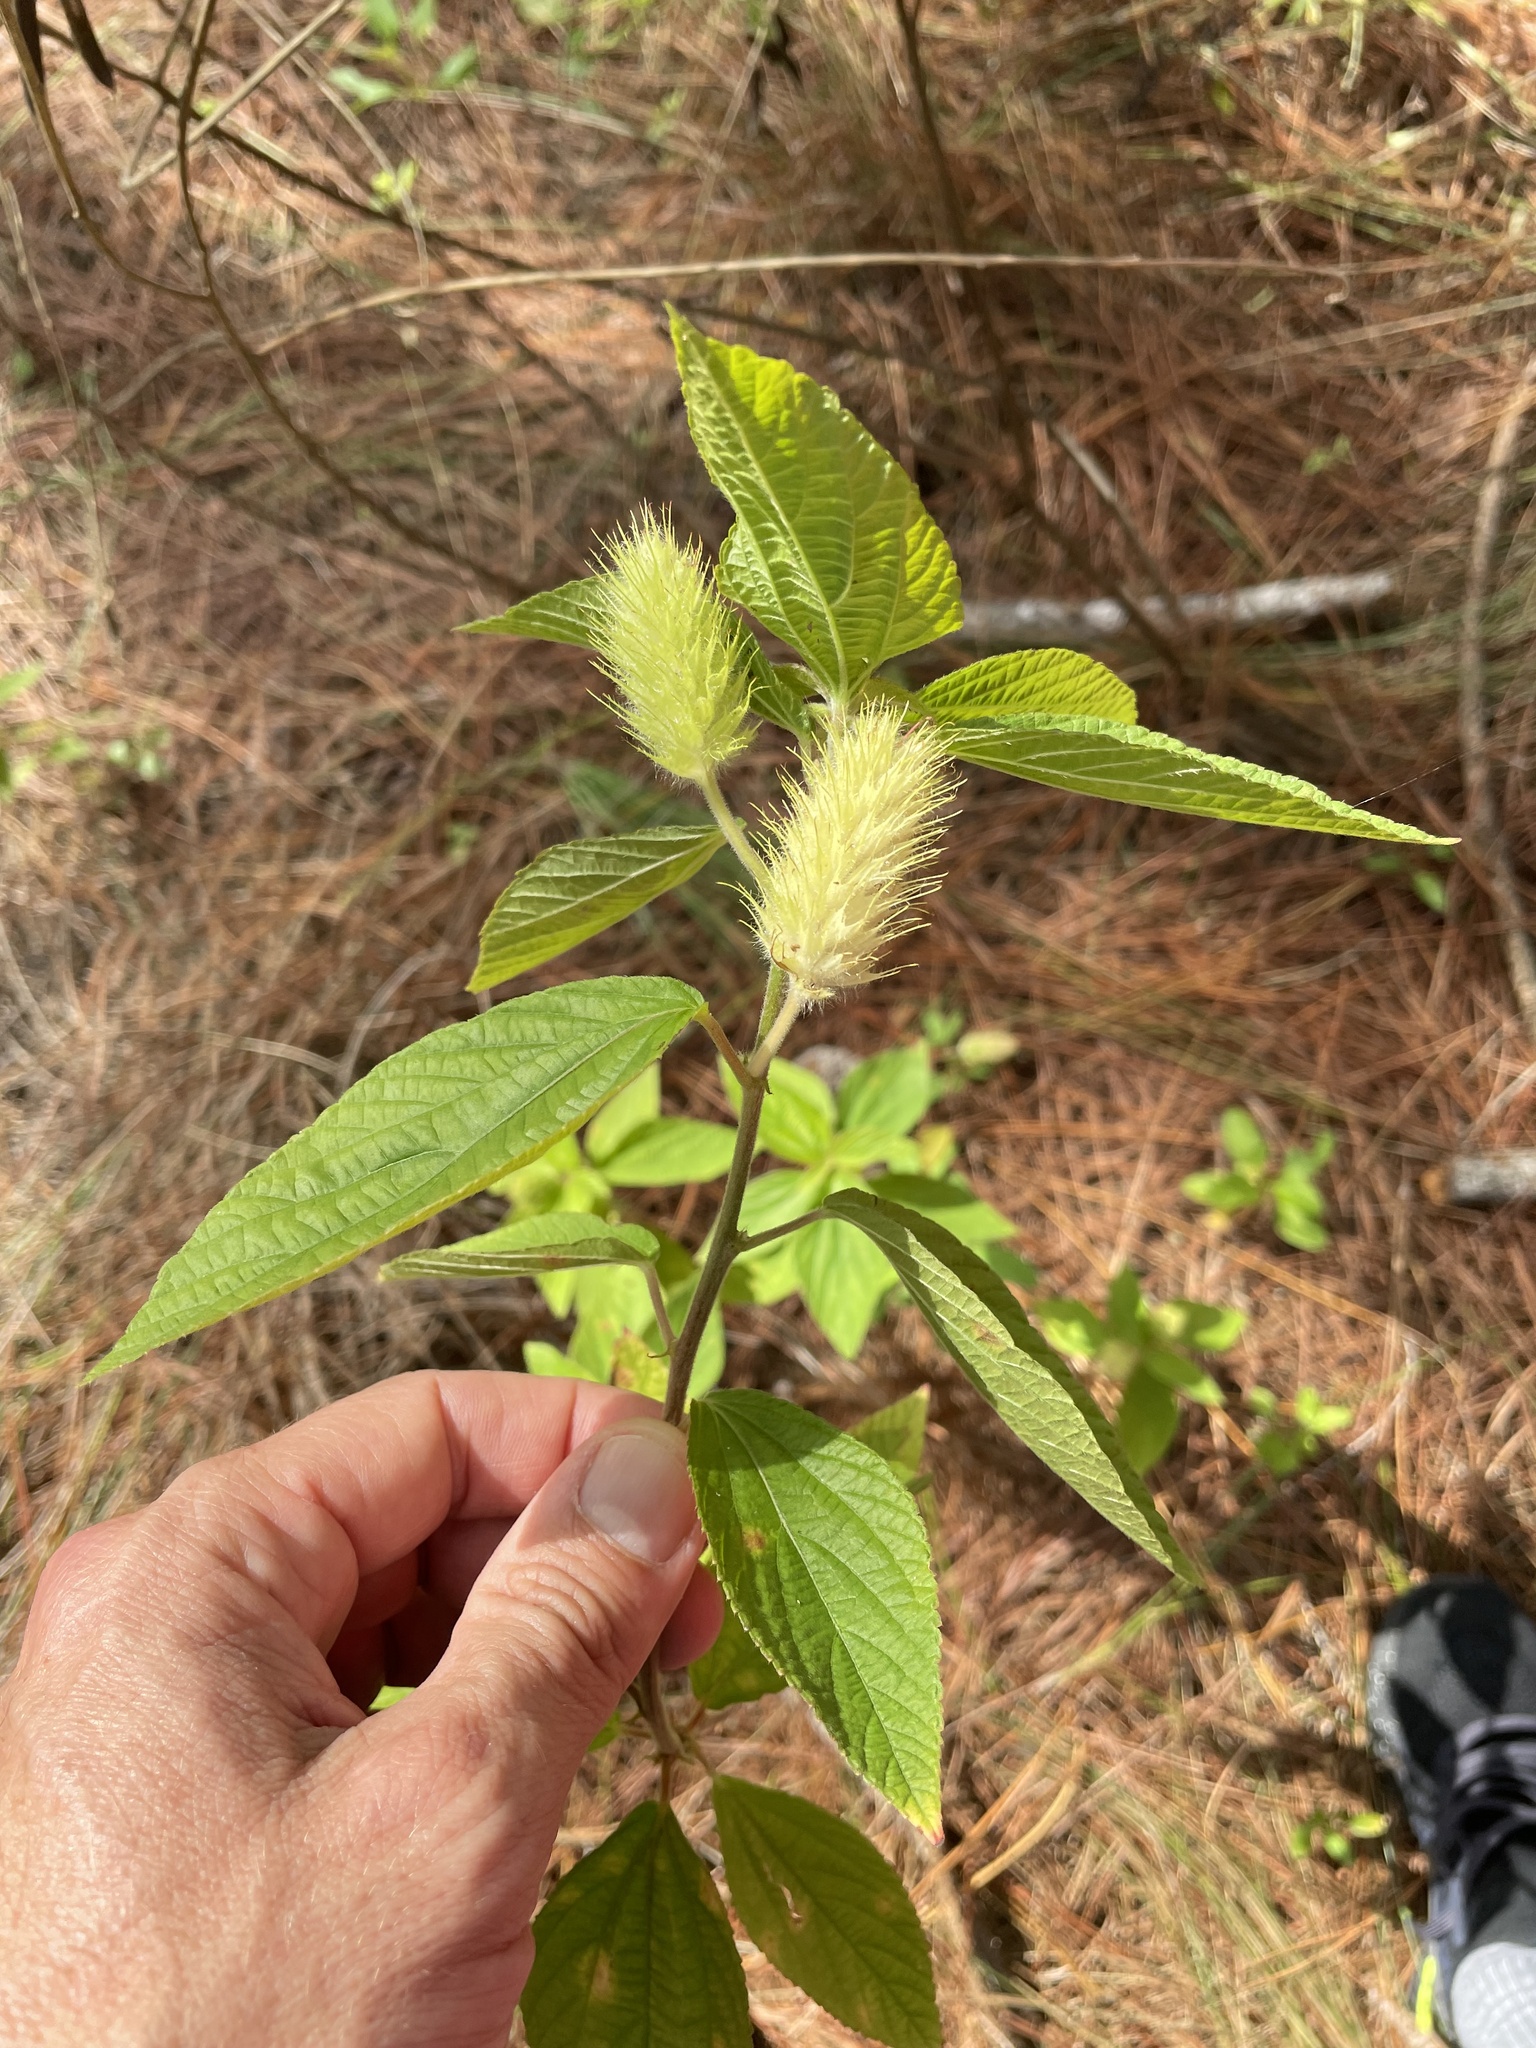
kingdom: Plantae
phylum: Tracheophyta
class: Magnoliopsida
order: Malpighiales
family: Euphorbiaceae
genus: Acalypha
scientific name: Acalypha arvensis
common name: Field copperleaf
